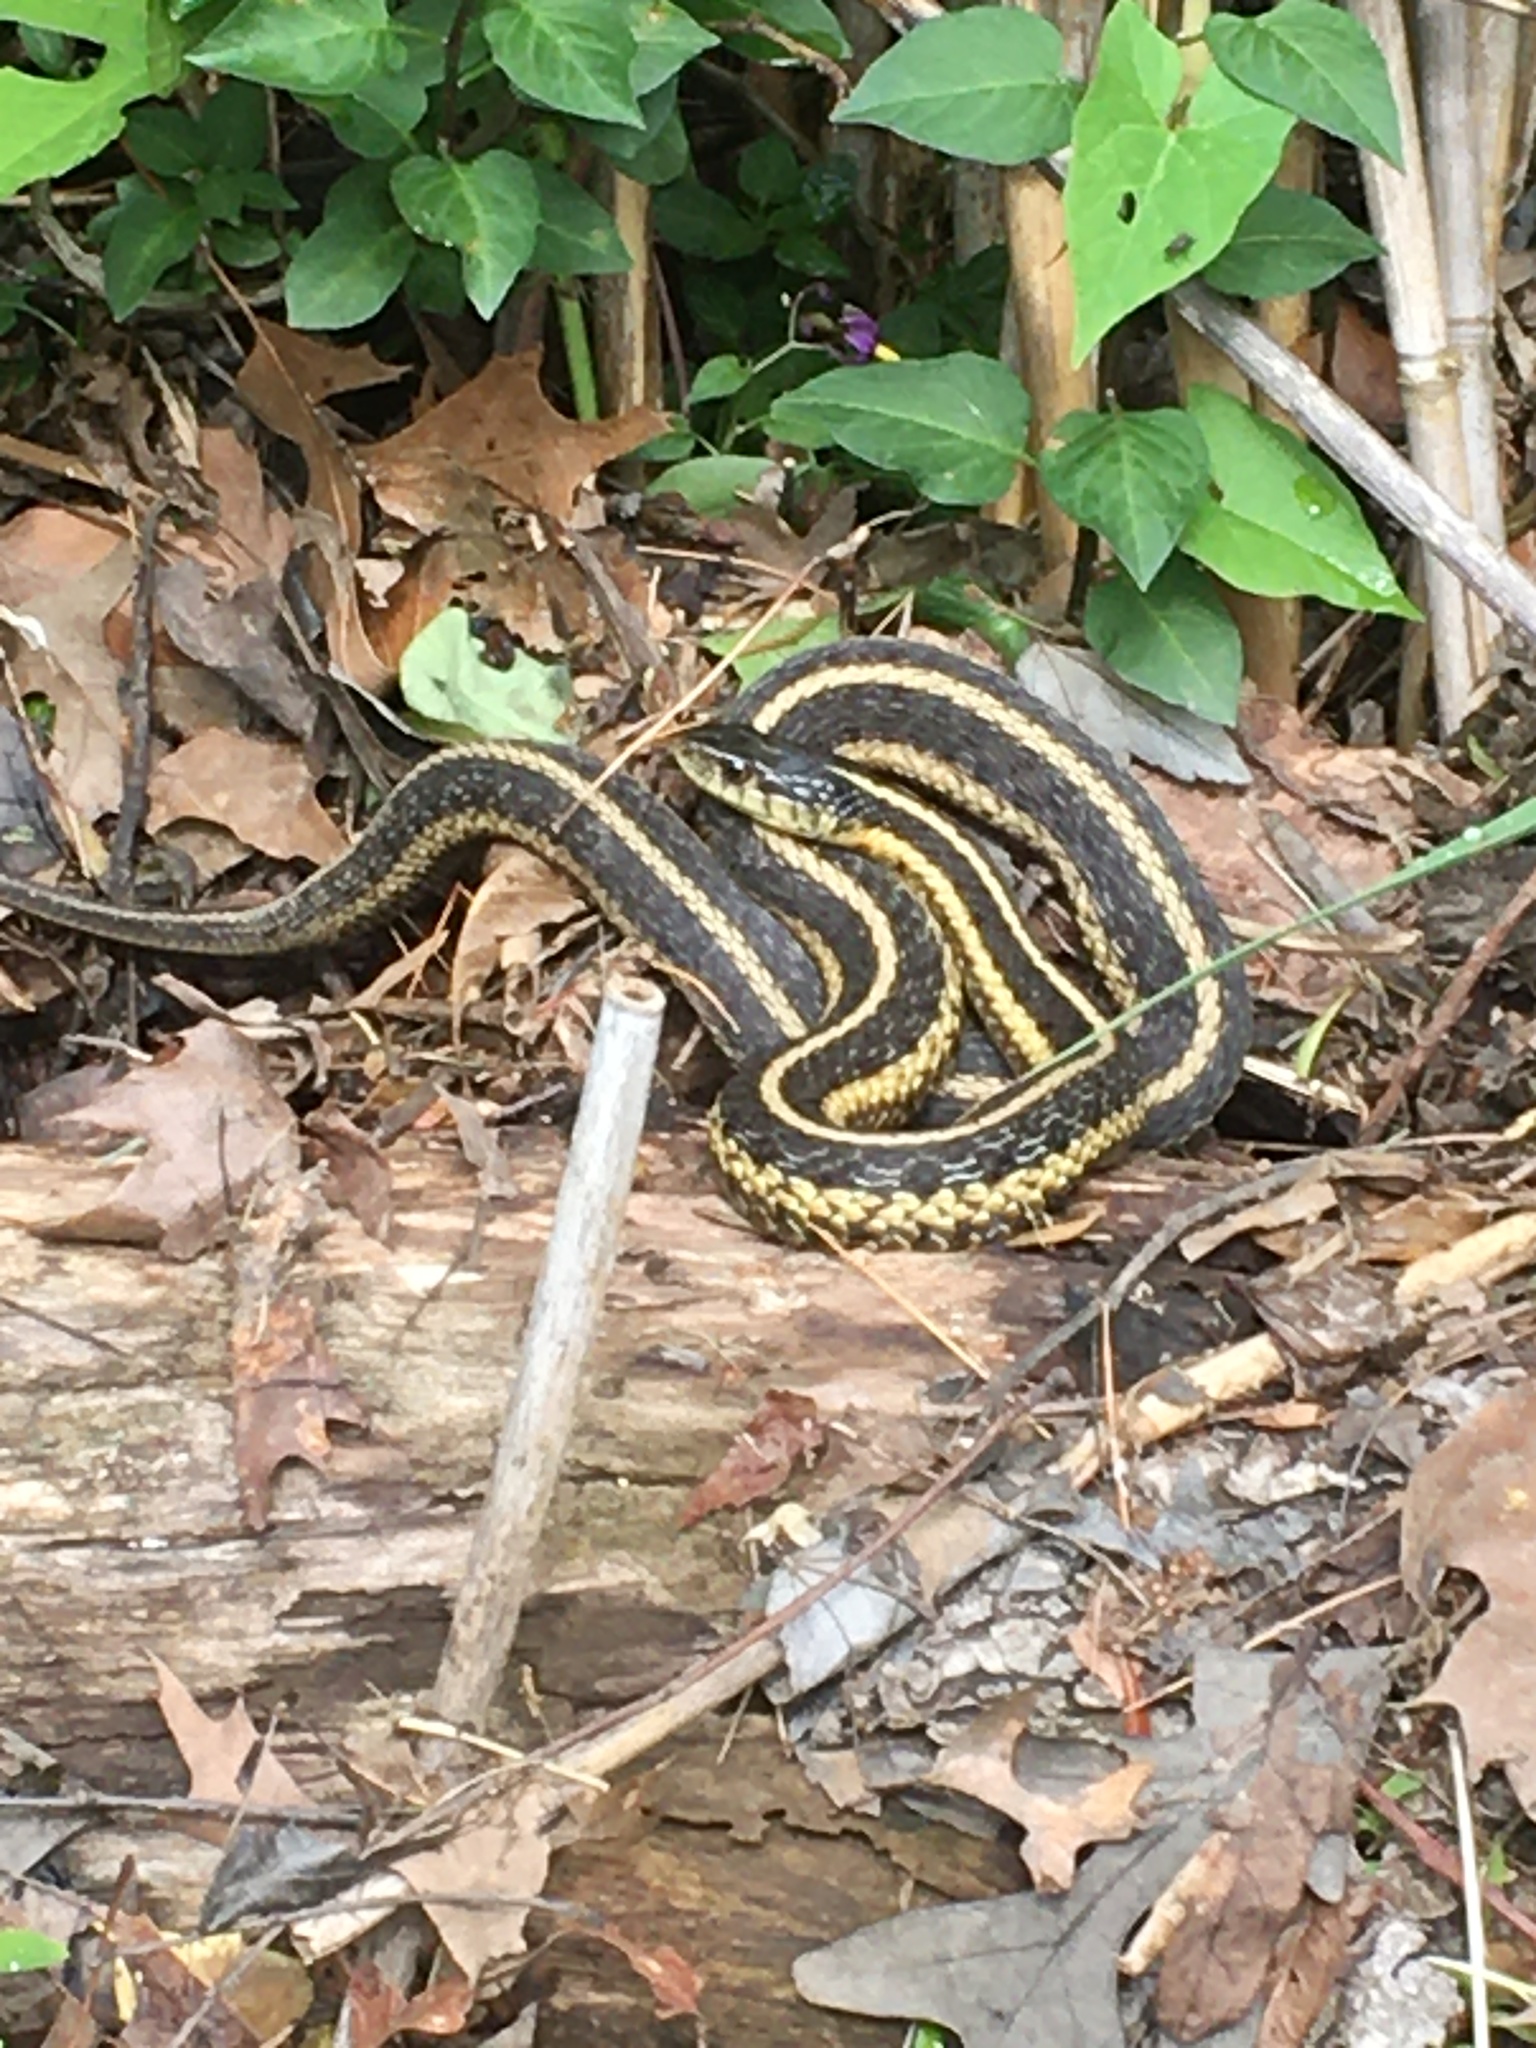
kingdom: Animalia
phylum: Chordata
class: Squamata
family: Colubridae
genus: Thamnophis
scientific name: Thamnophis sirtalis
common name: Common garter snake
